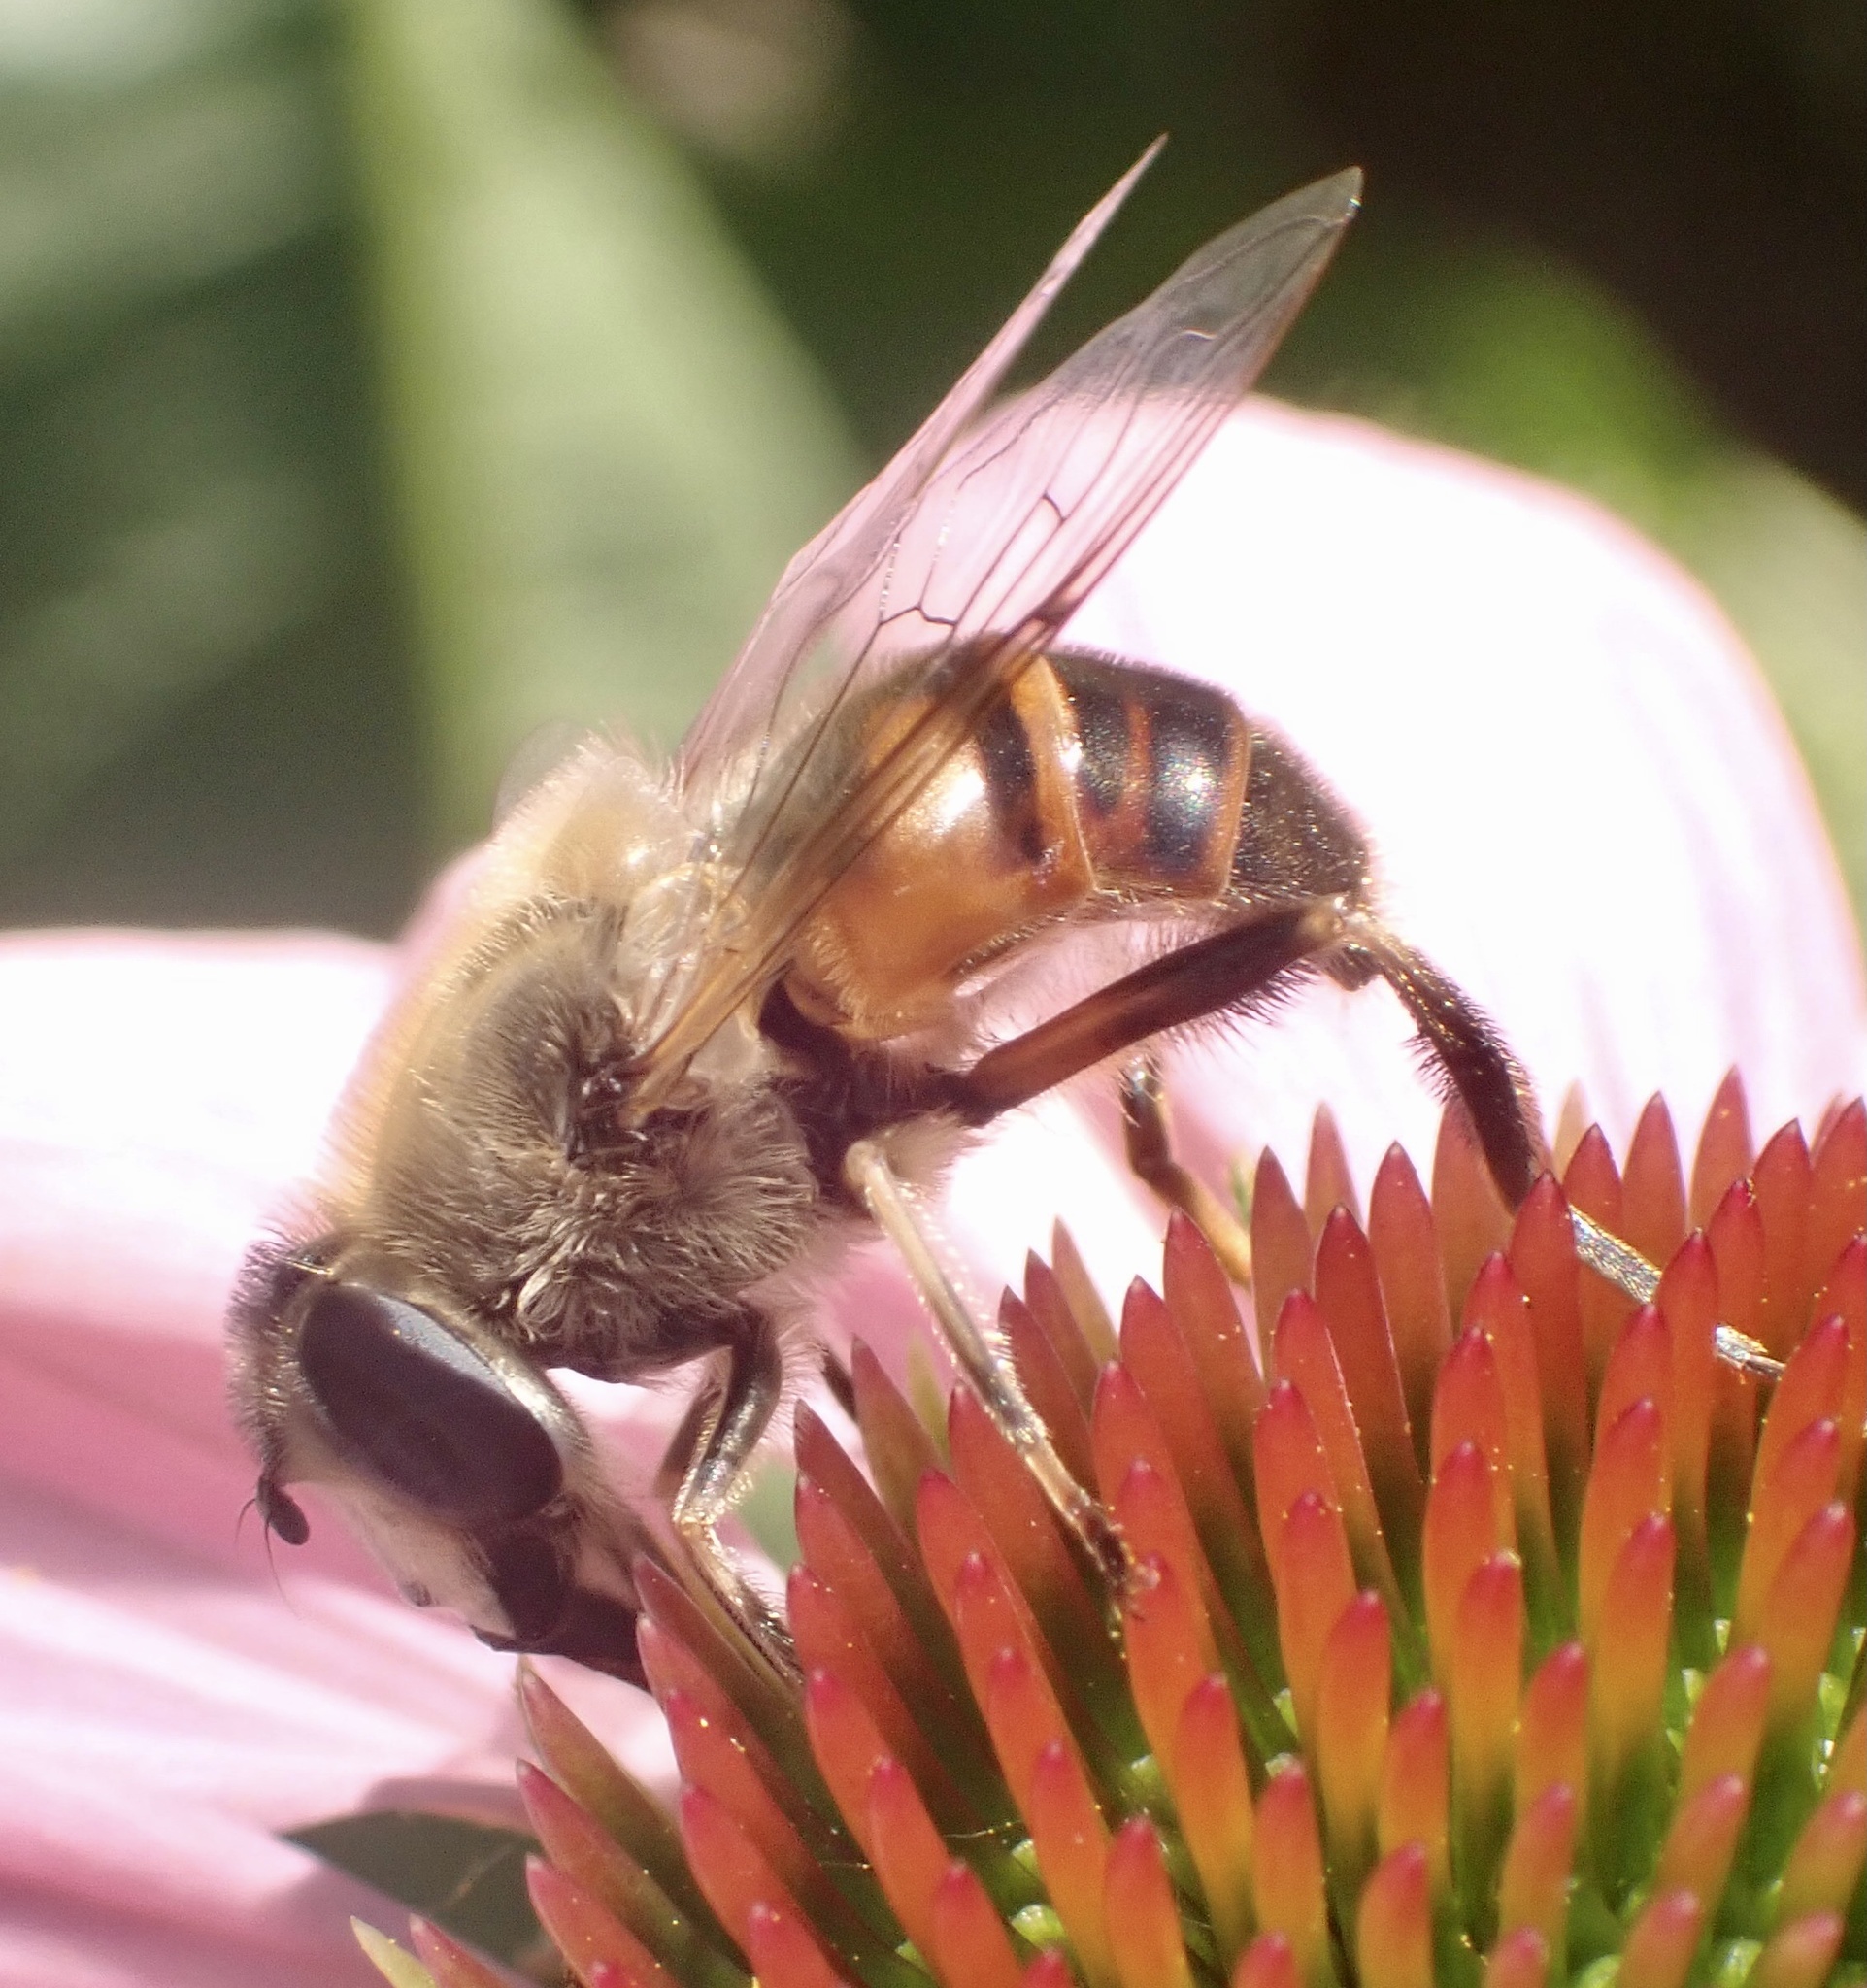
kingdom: Animalia
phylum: Arthropoda
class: Insecta
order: Diptera
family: Syrphidae
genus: Eristalis
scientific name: Eristalis tenax
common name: Drone fly
